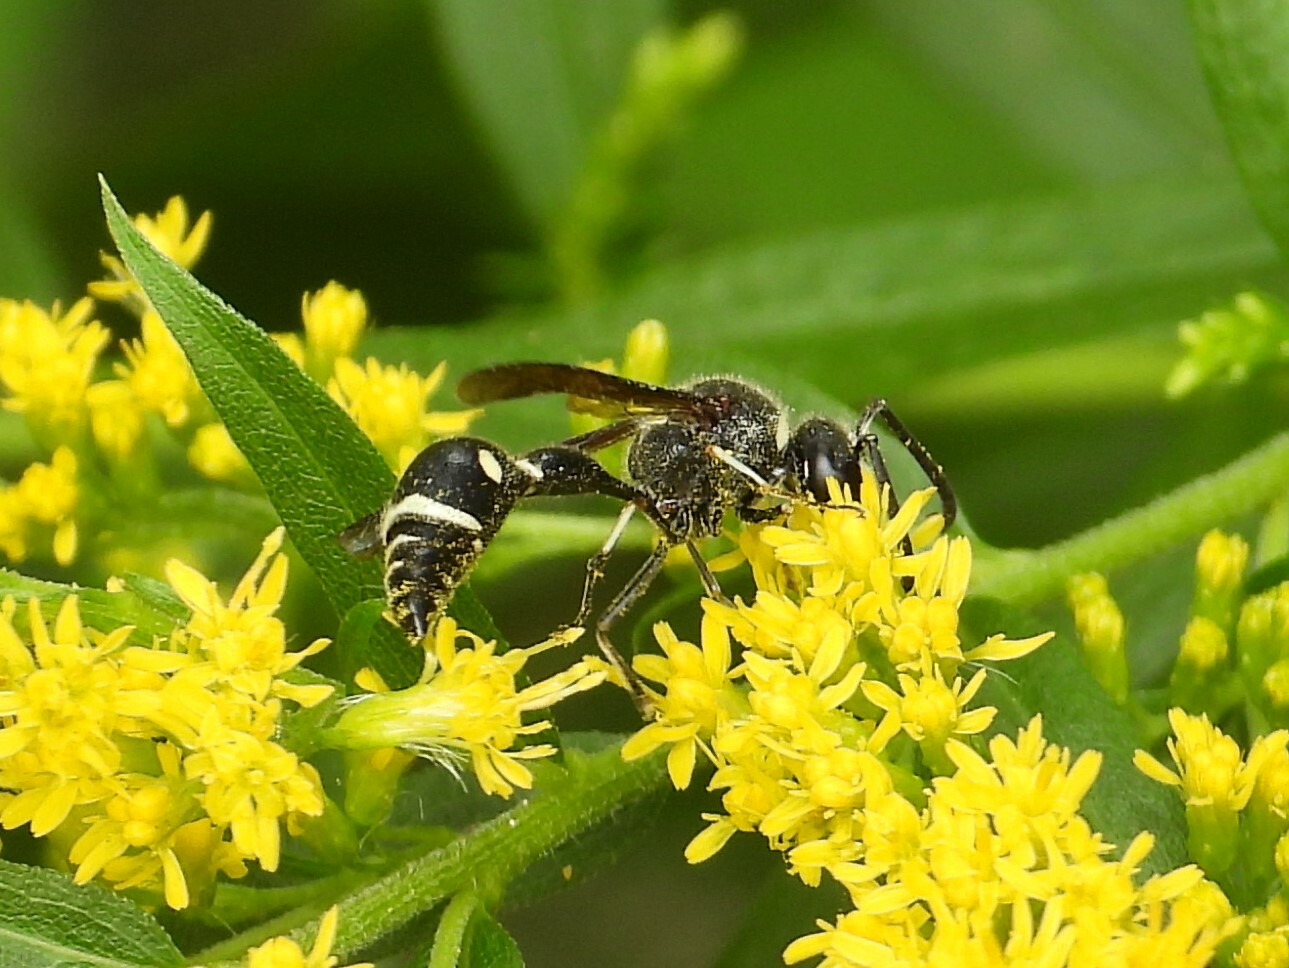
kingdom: Animalia
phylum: Arthropoda
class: Insecta
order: Hymenoptera
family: Vespidae
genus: Eumenes
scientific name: Eumenes fraternus
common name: Fraternal potter wasp
